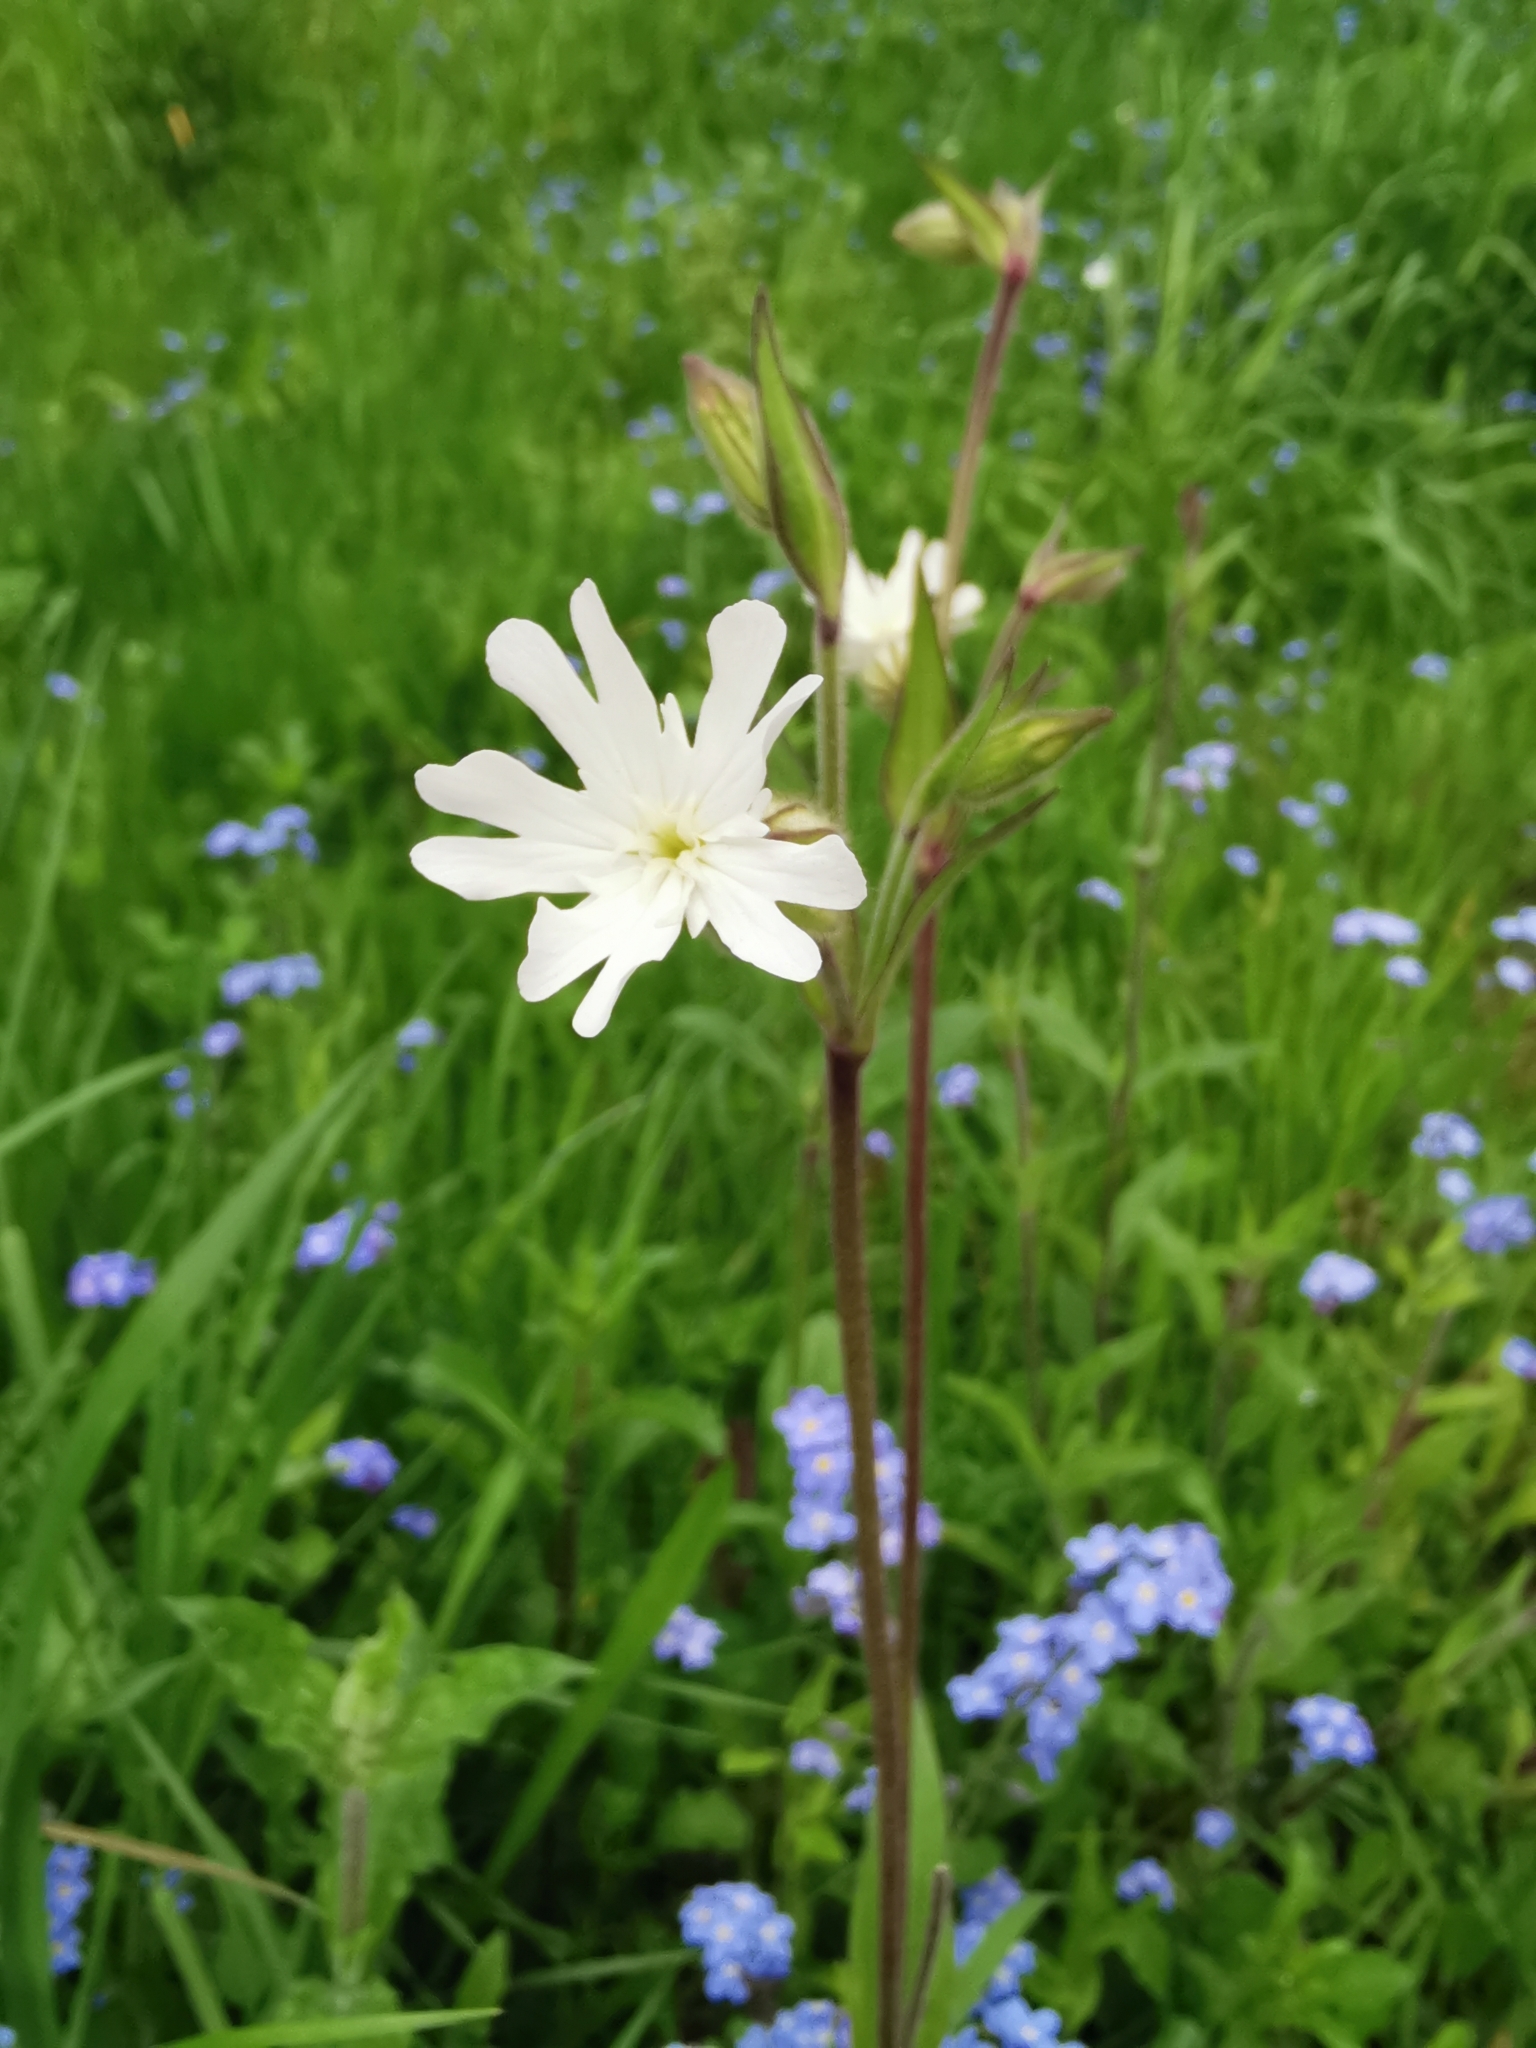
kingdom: Plantae
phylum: Tracheophyta
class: Magnoliopsida
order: Caryophyllales
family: Caryophyllaceae
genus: Silene
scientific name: Silene latifolia
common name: White campion
